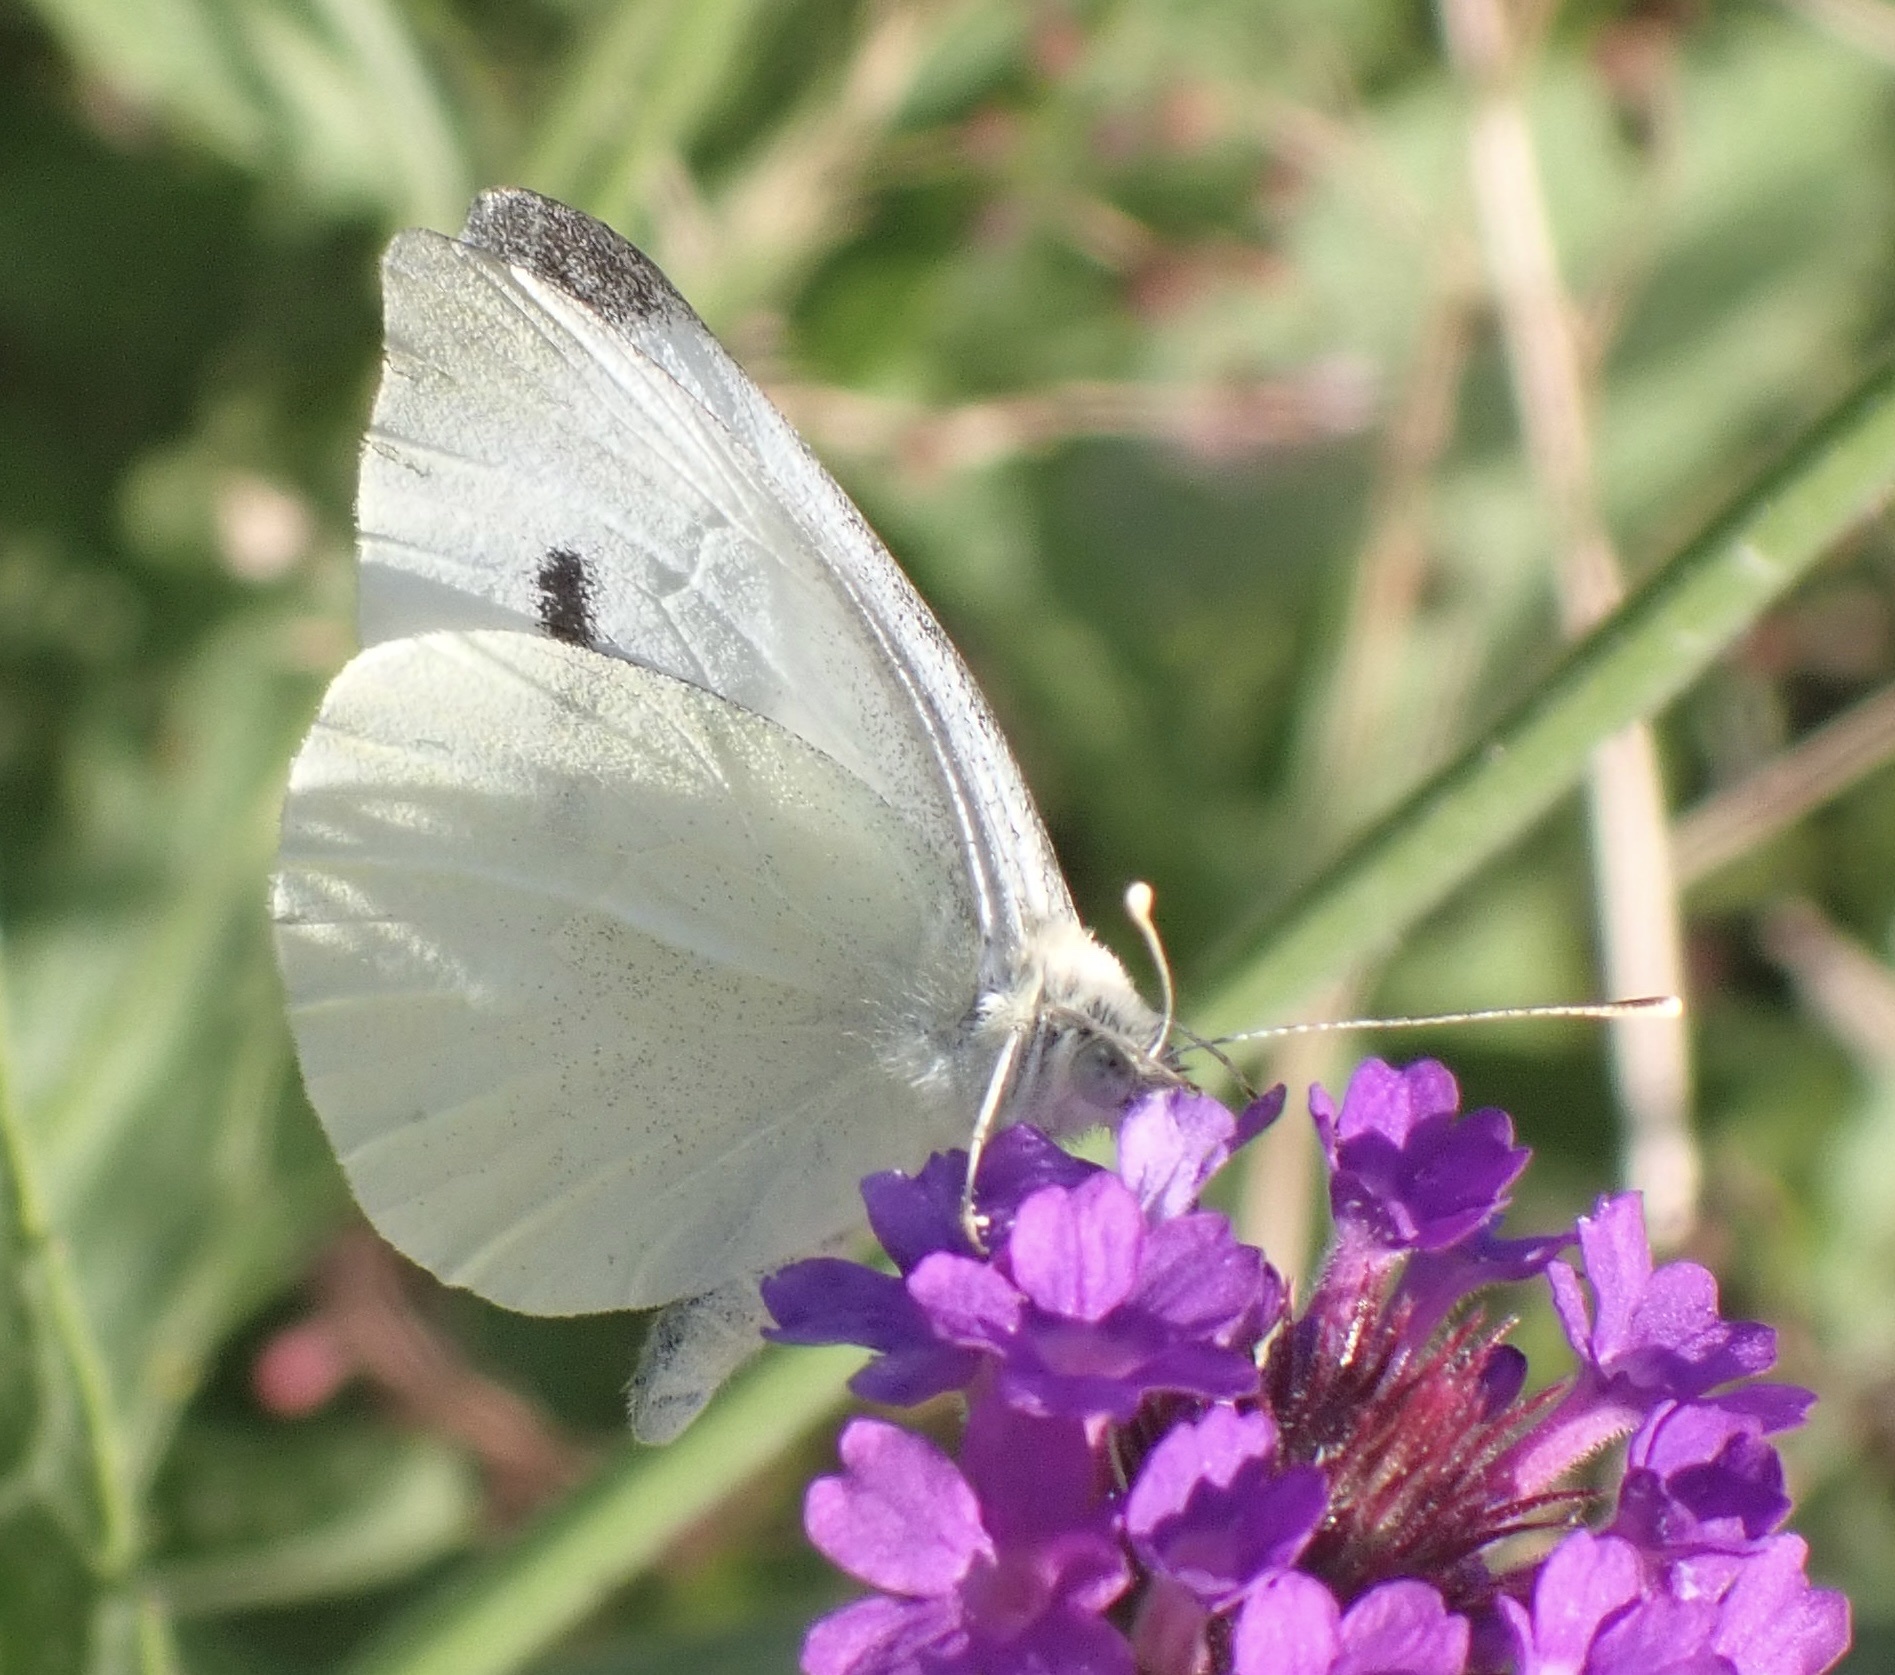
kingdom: Animalia
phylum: Arthropoda
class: Insecta
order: Lepidoptera
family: Pieridae
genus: Pieris
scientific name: Pieris rapae
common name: Small white
